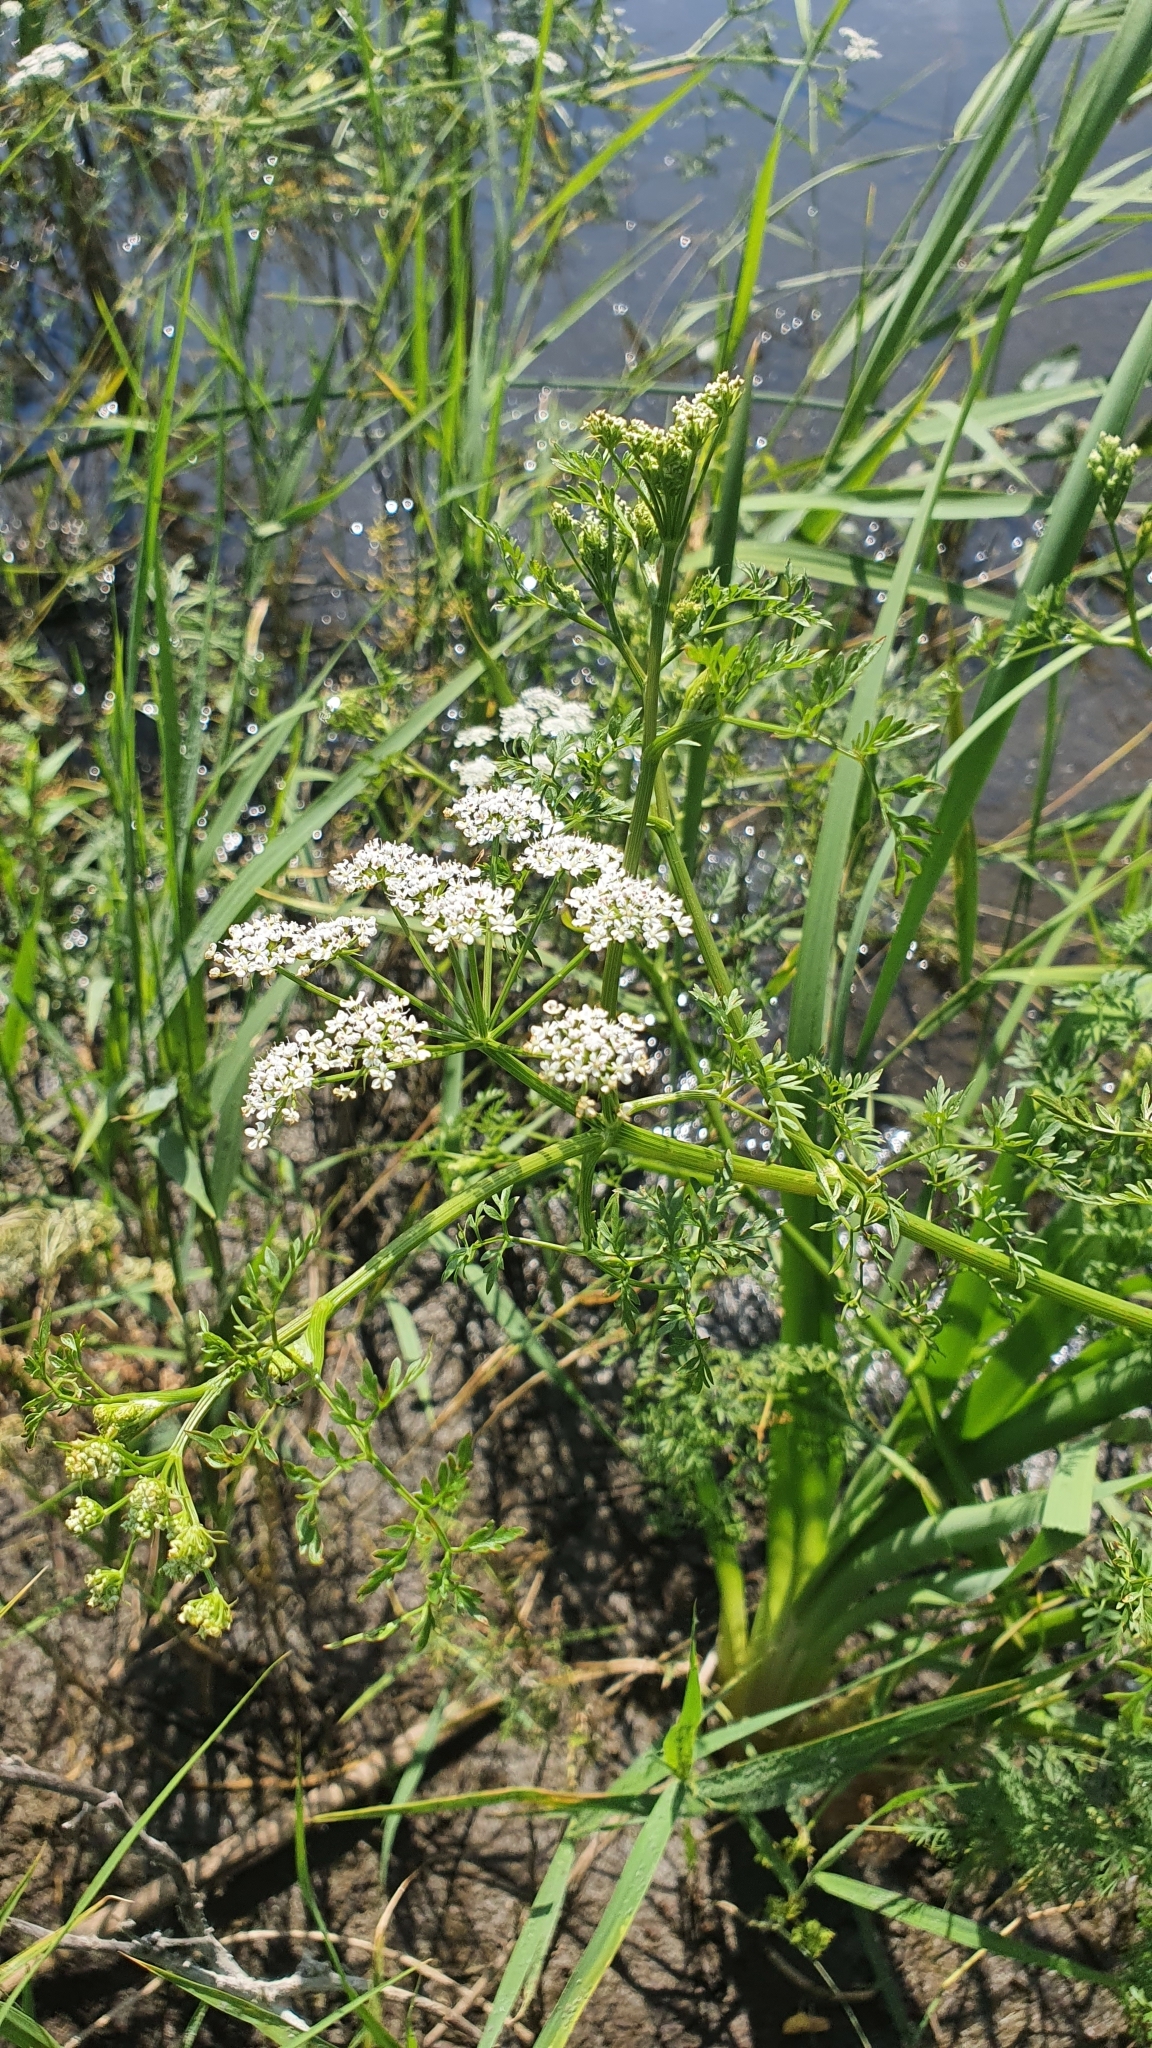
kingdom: Plantae
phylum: Tracheophyta
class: Magnoliopsida
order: Apiales
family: Apiaceae
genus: Oenanthe
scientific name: Oenanthe aquatica
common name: Fine-leaved water-dropwort
